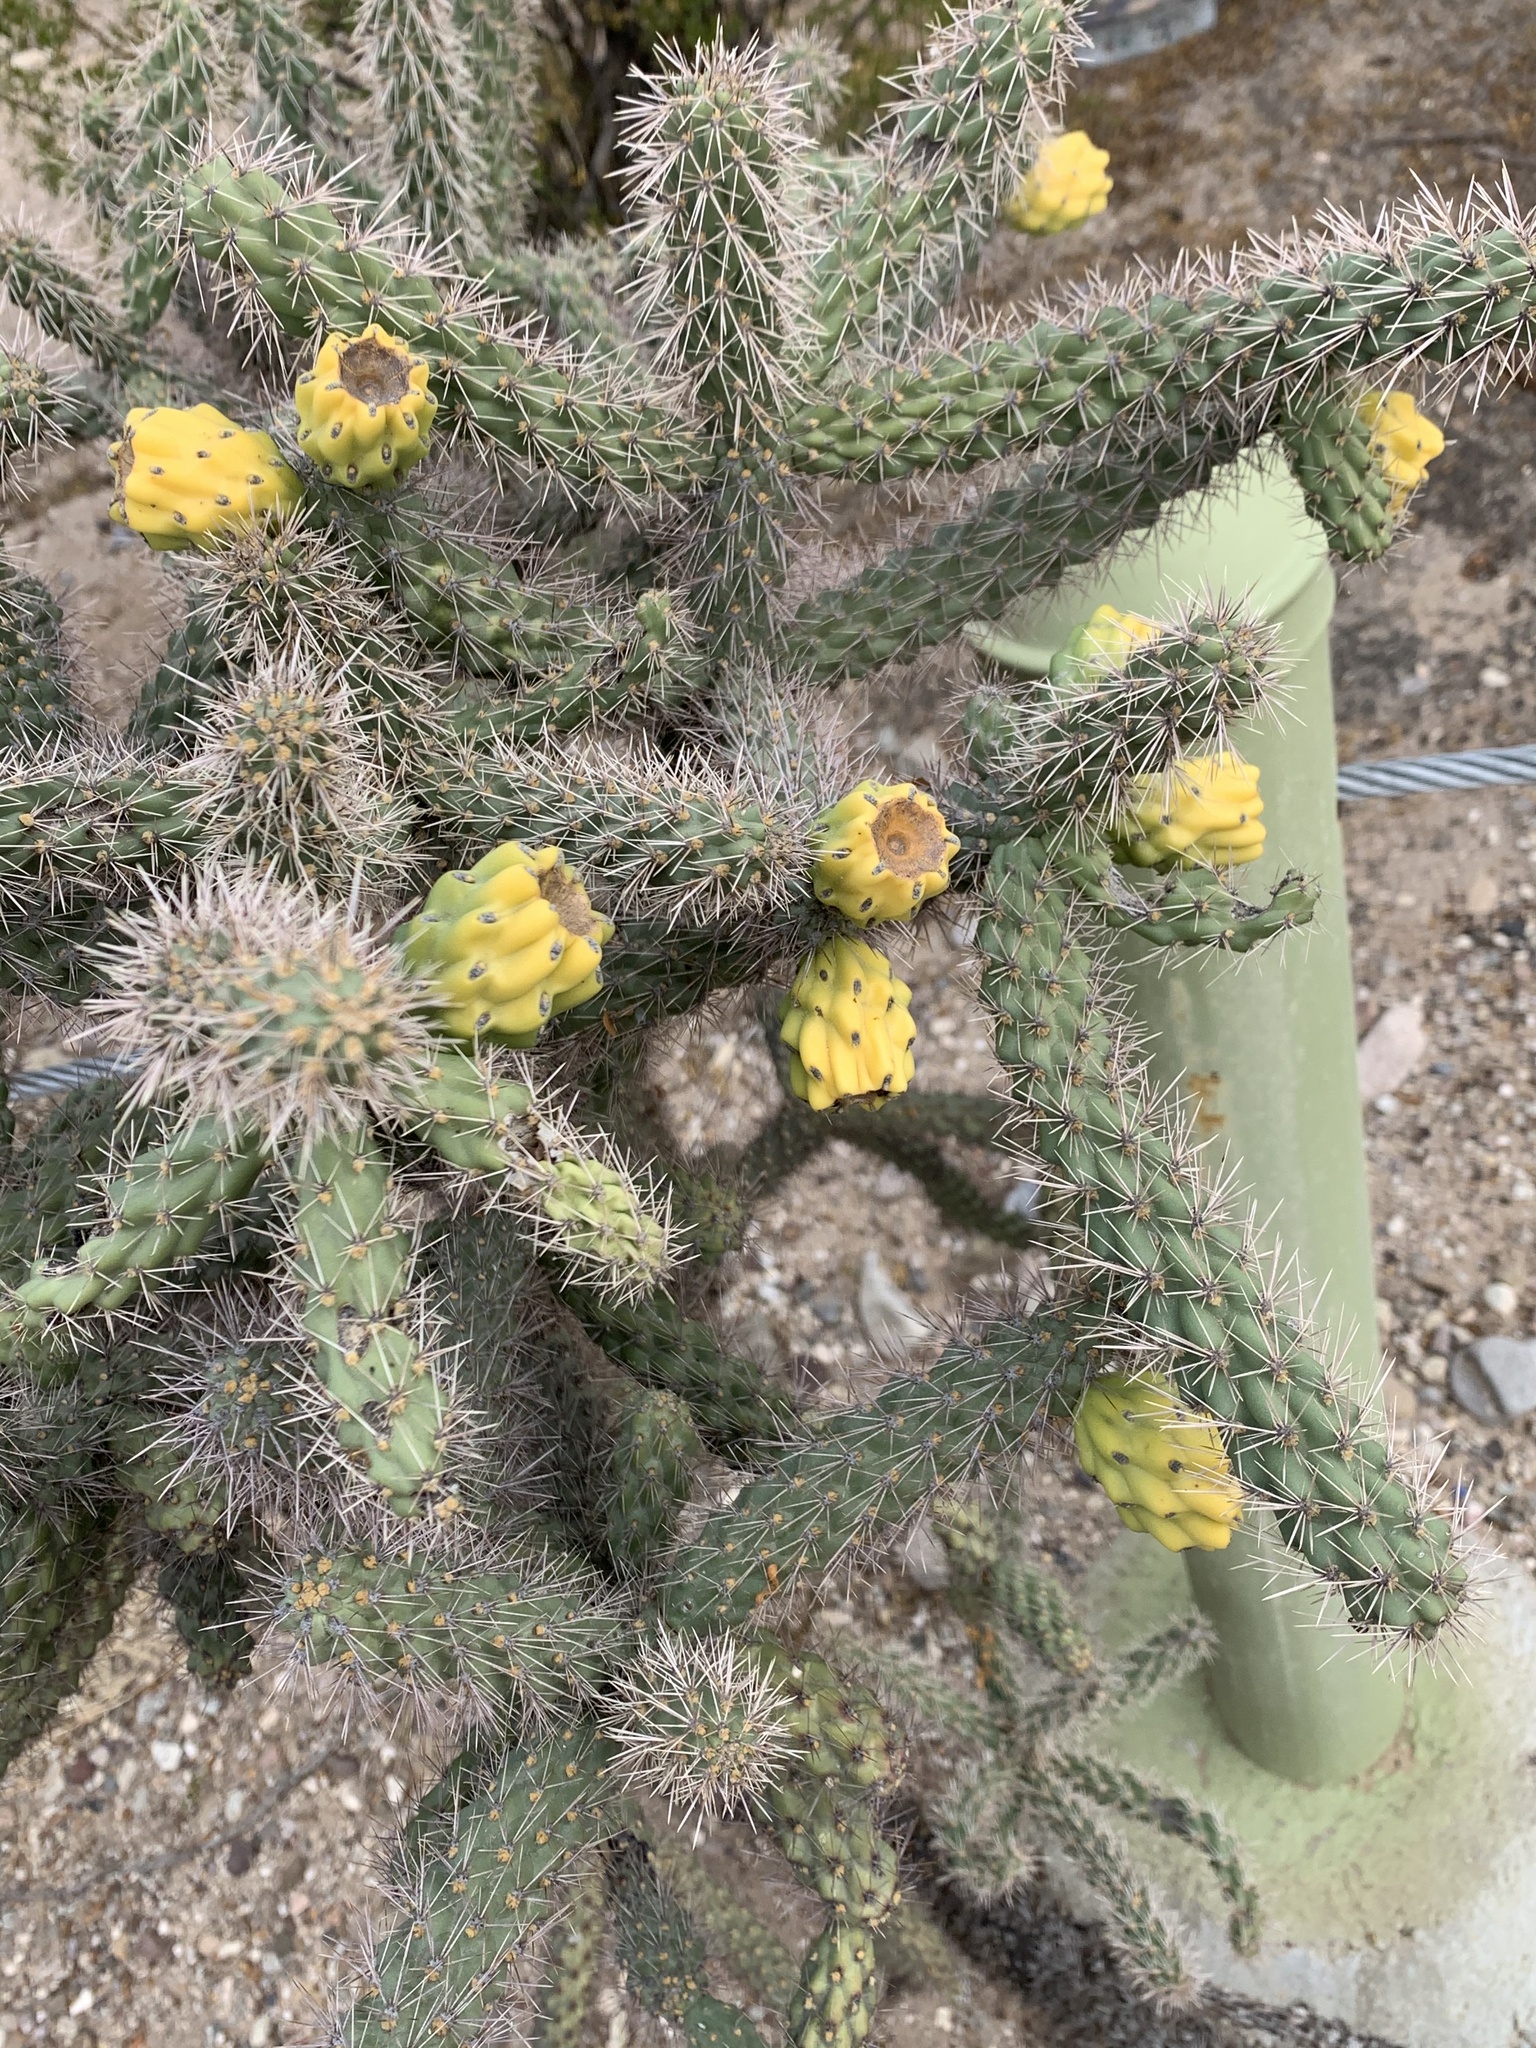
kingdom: Plantae
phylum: Tracheophyta
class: Magnoliopsida
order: Caryophyllales
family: Cactaceae
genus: Cylindropuntia
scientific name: Cylindropuntia imbricata
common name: Candelabrum cactus
